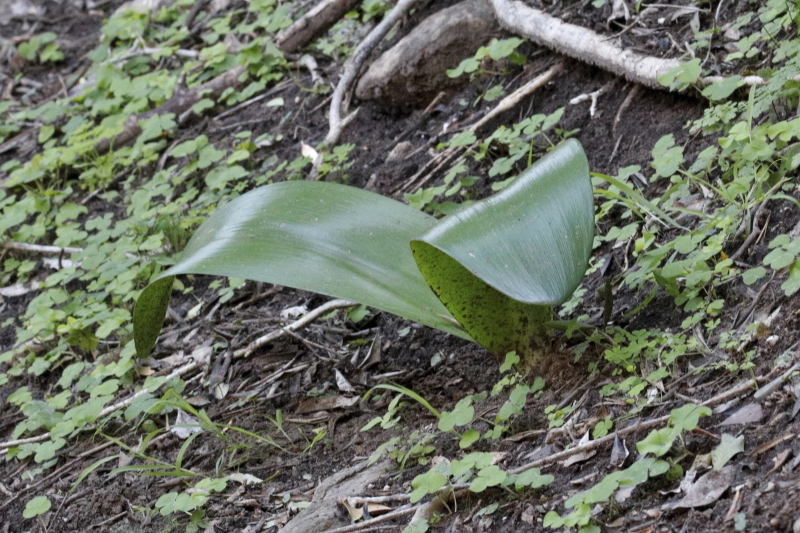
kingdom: Plantae
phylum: Tracheophyta
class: Liliopsida
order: Asparagales
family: Amaryllidaceae
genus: Haemanthus
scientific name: Haemanthus coccineus
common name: Cape-tulip
